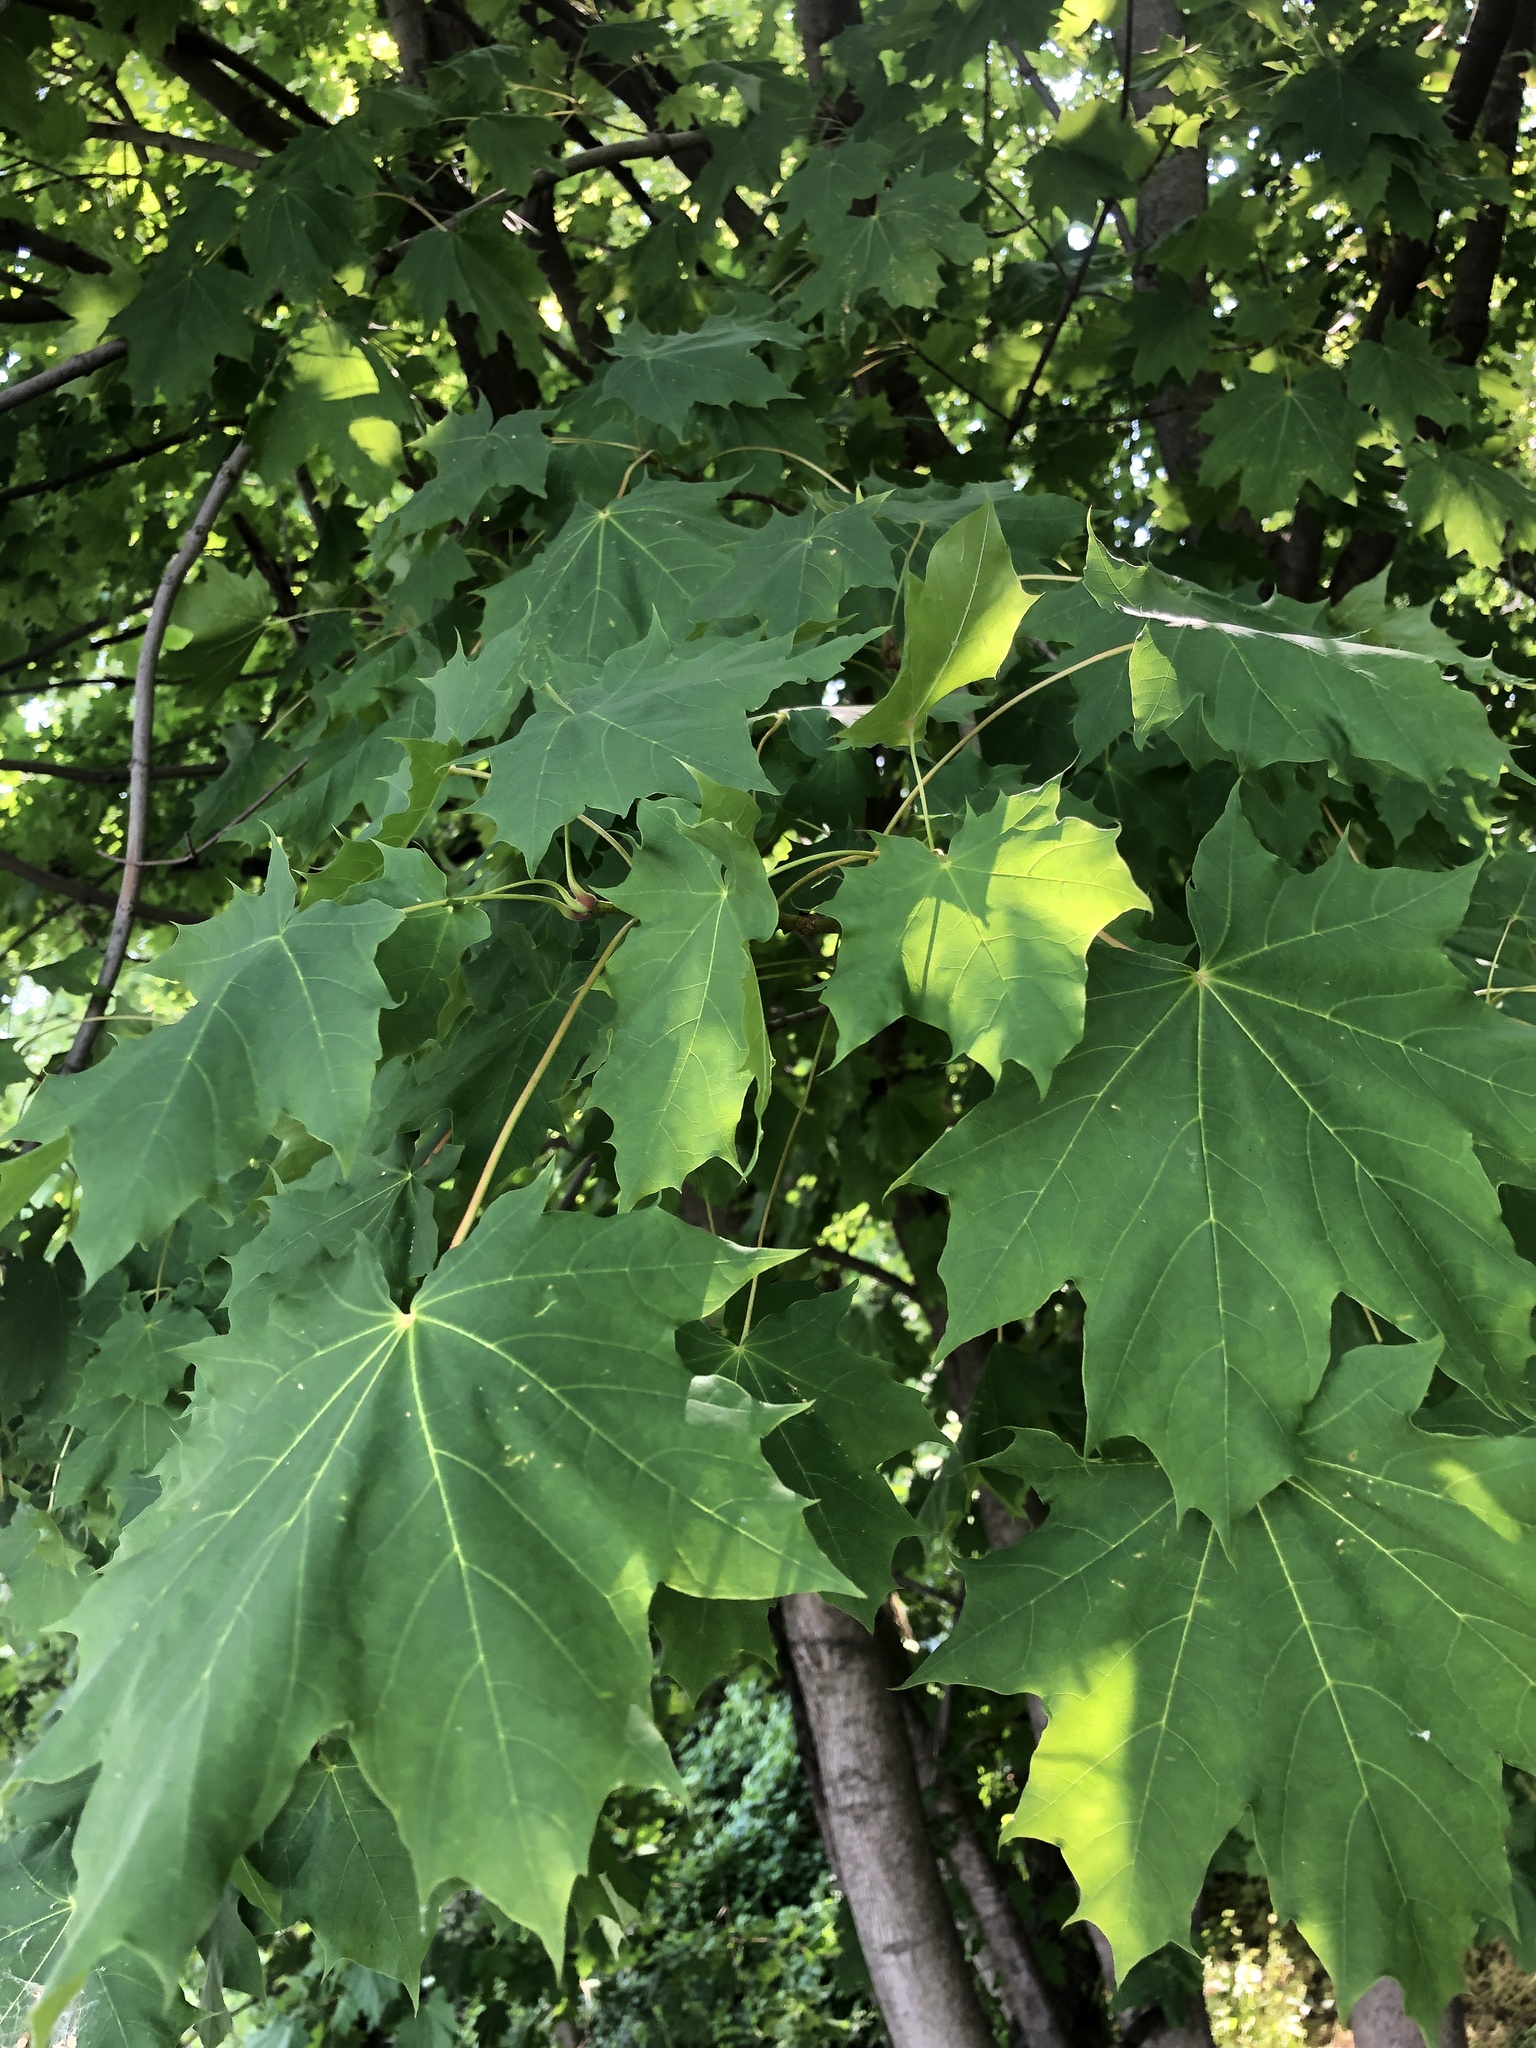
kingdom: Plantae
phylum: Tracheophyta
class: Magnoliopsida
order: Sapindales
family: Sapindaceae
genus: Acer
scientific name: Acer platanoides
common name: Norway maple
